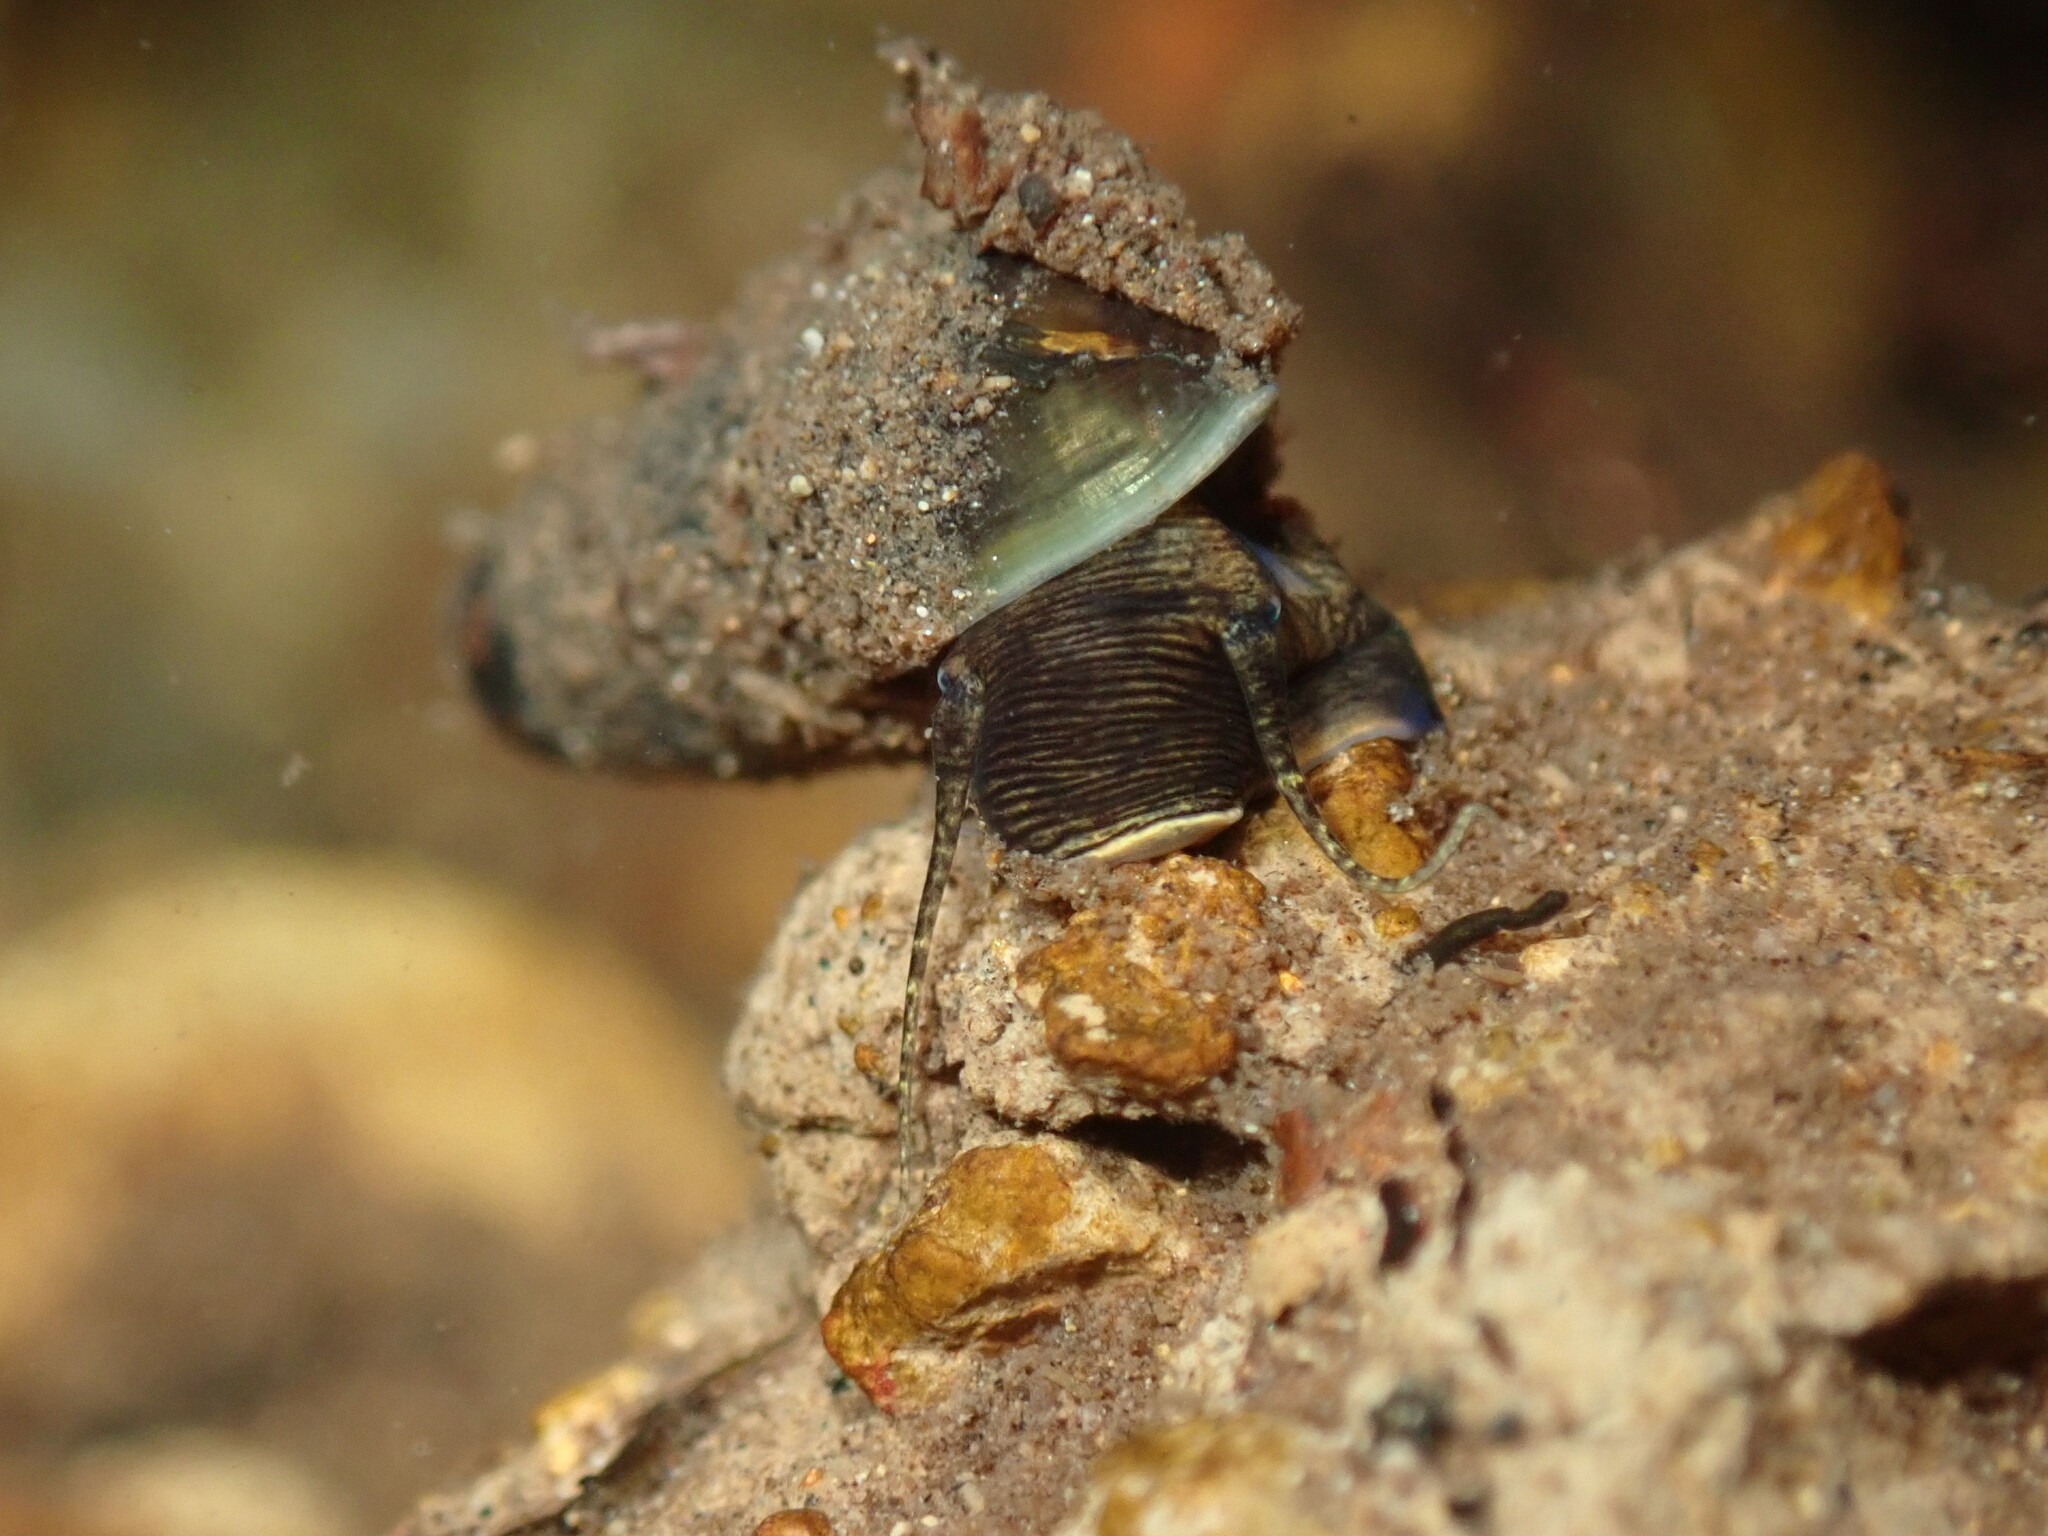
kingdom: Animalia
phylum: Mollusca
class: Gastropoda
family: Semisulcospiridae
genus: Juga
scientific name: Juga plicifera
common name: Pleated juga
